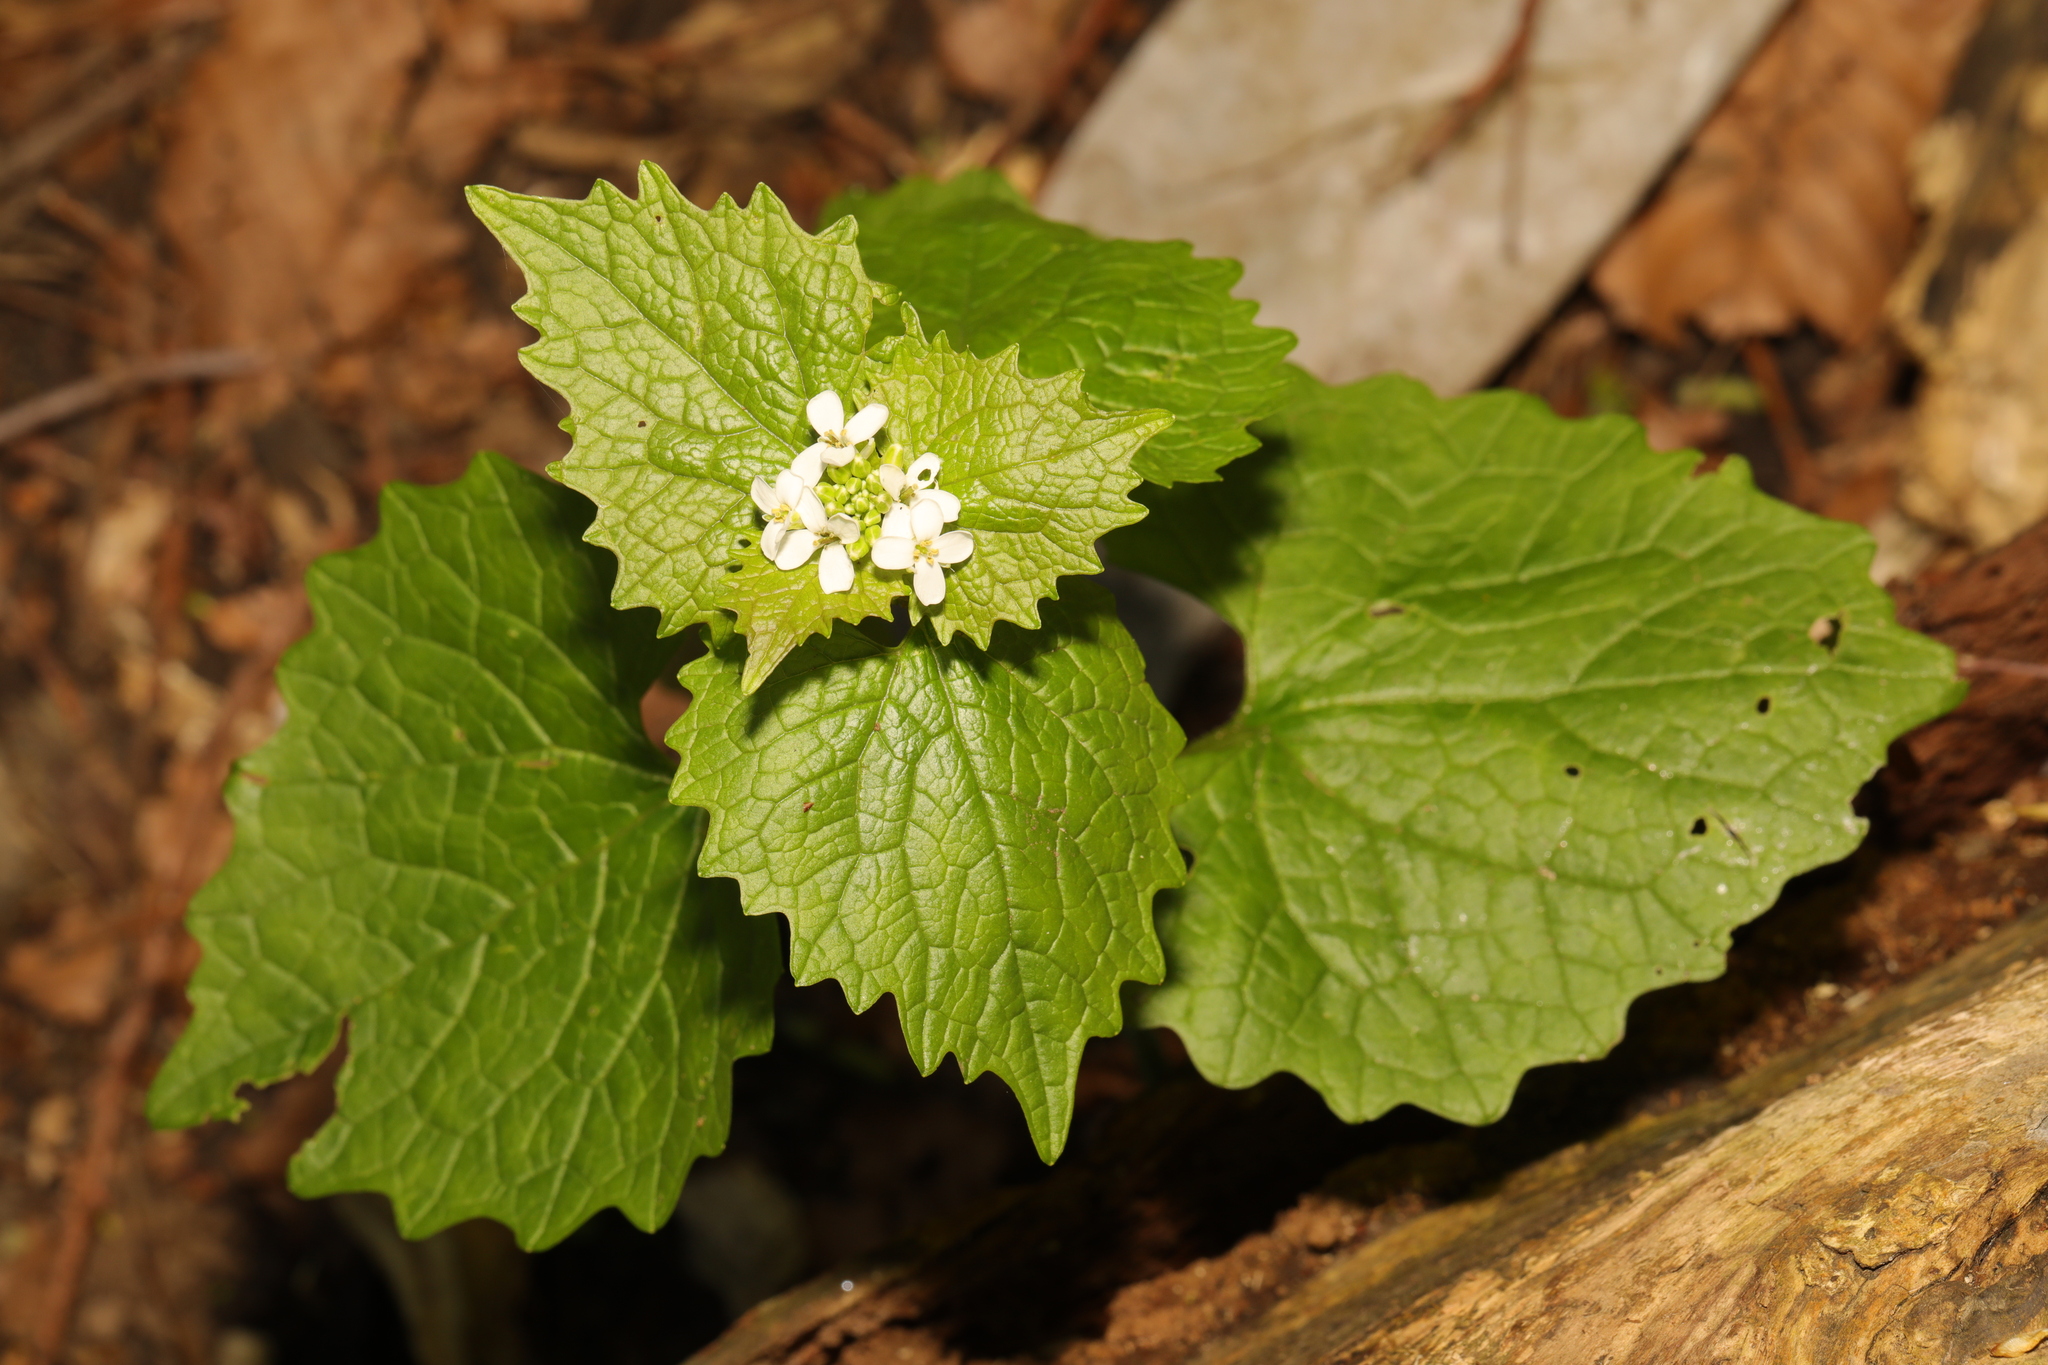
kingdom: Plantae
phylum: Tracheophyta
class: Magnoliopsida
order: Brassicales
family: Brassicaceae
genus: Alliaria
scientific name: Alliaria petiolata
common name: Garlic mustard
